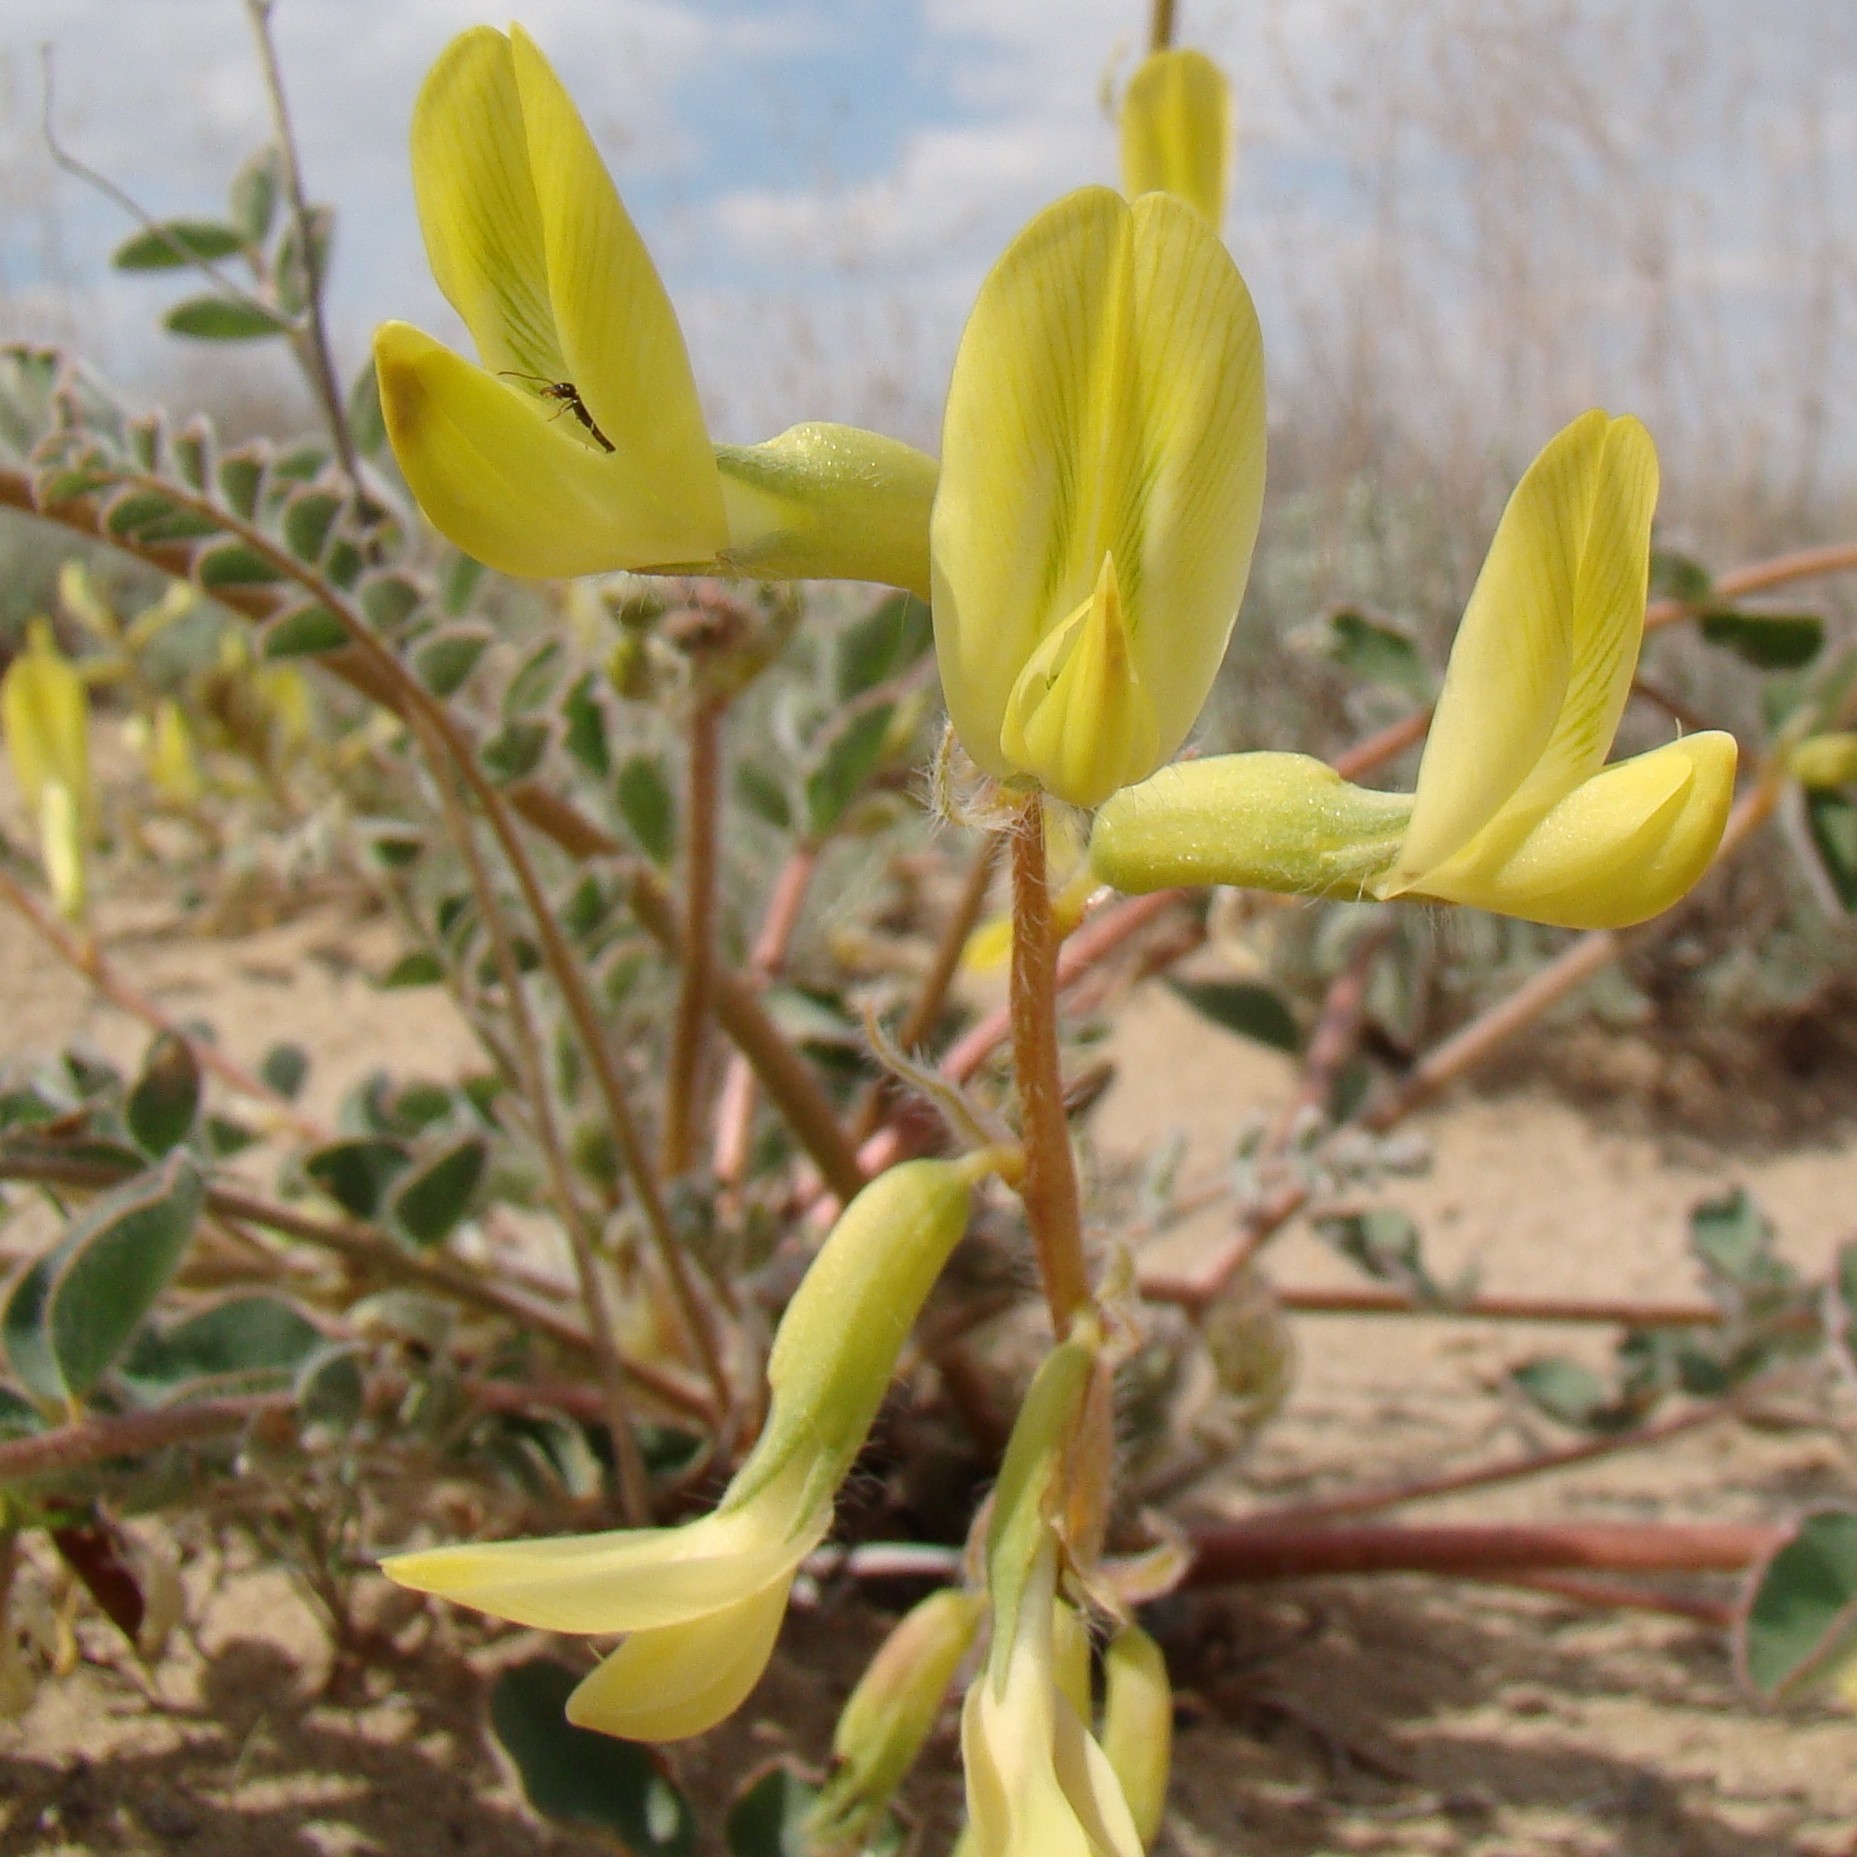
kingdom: Plantae
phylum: Tracheophyta
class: Magnoliopsida
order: Fabales
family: Fabaceae
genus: Astragalus
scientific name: Astragalus flexus
